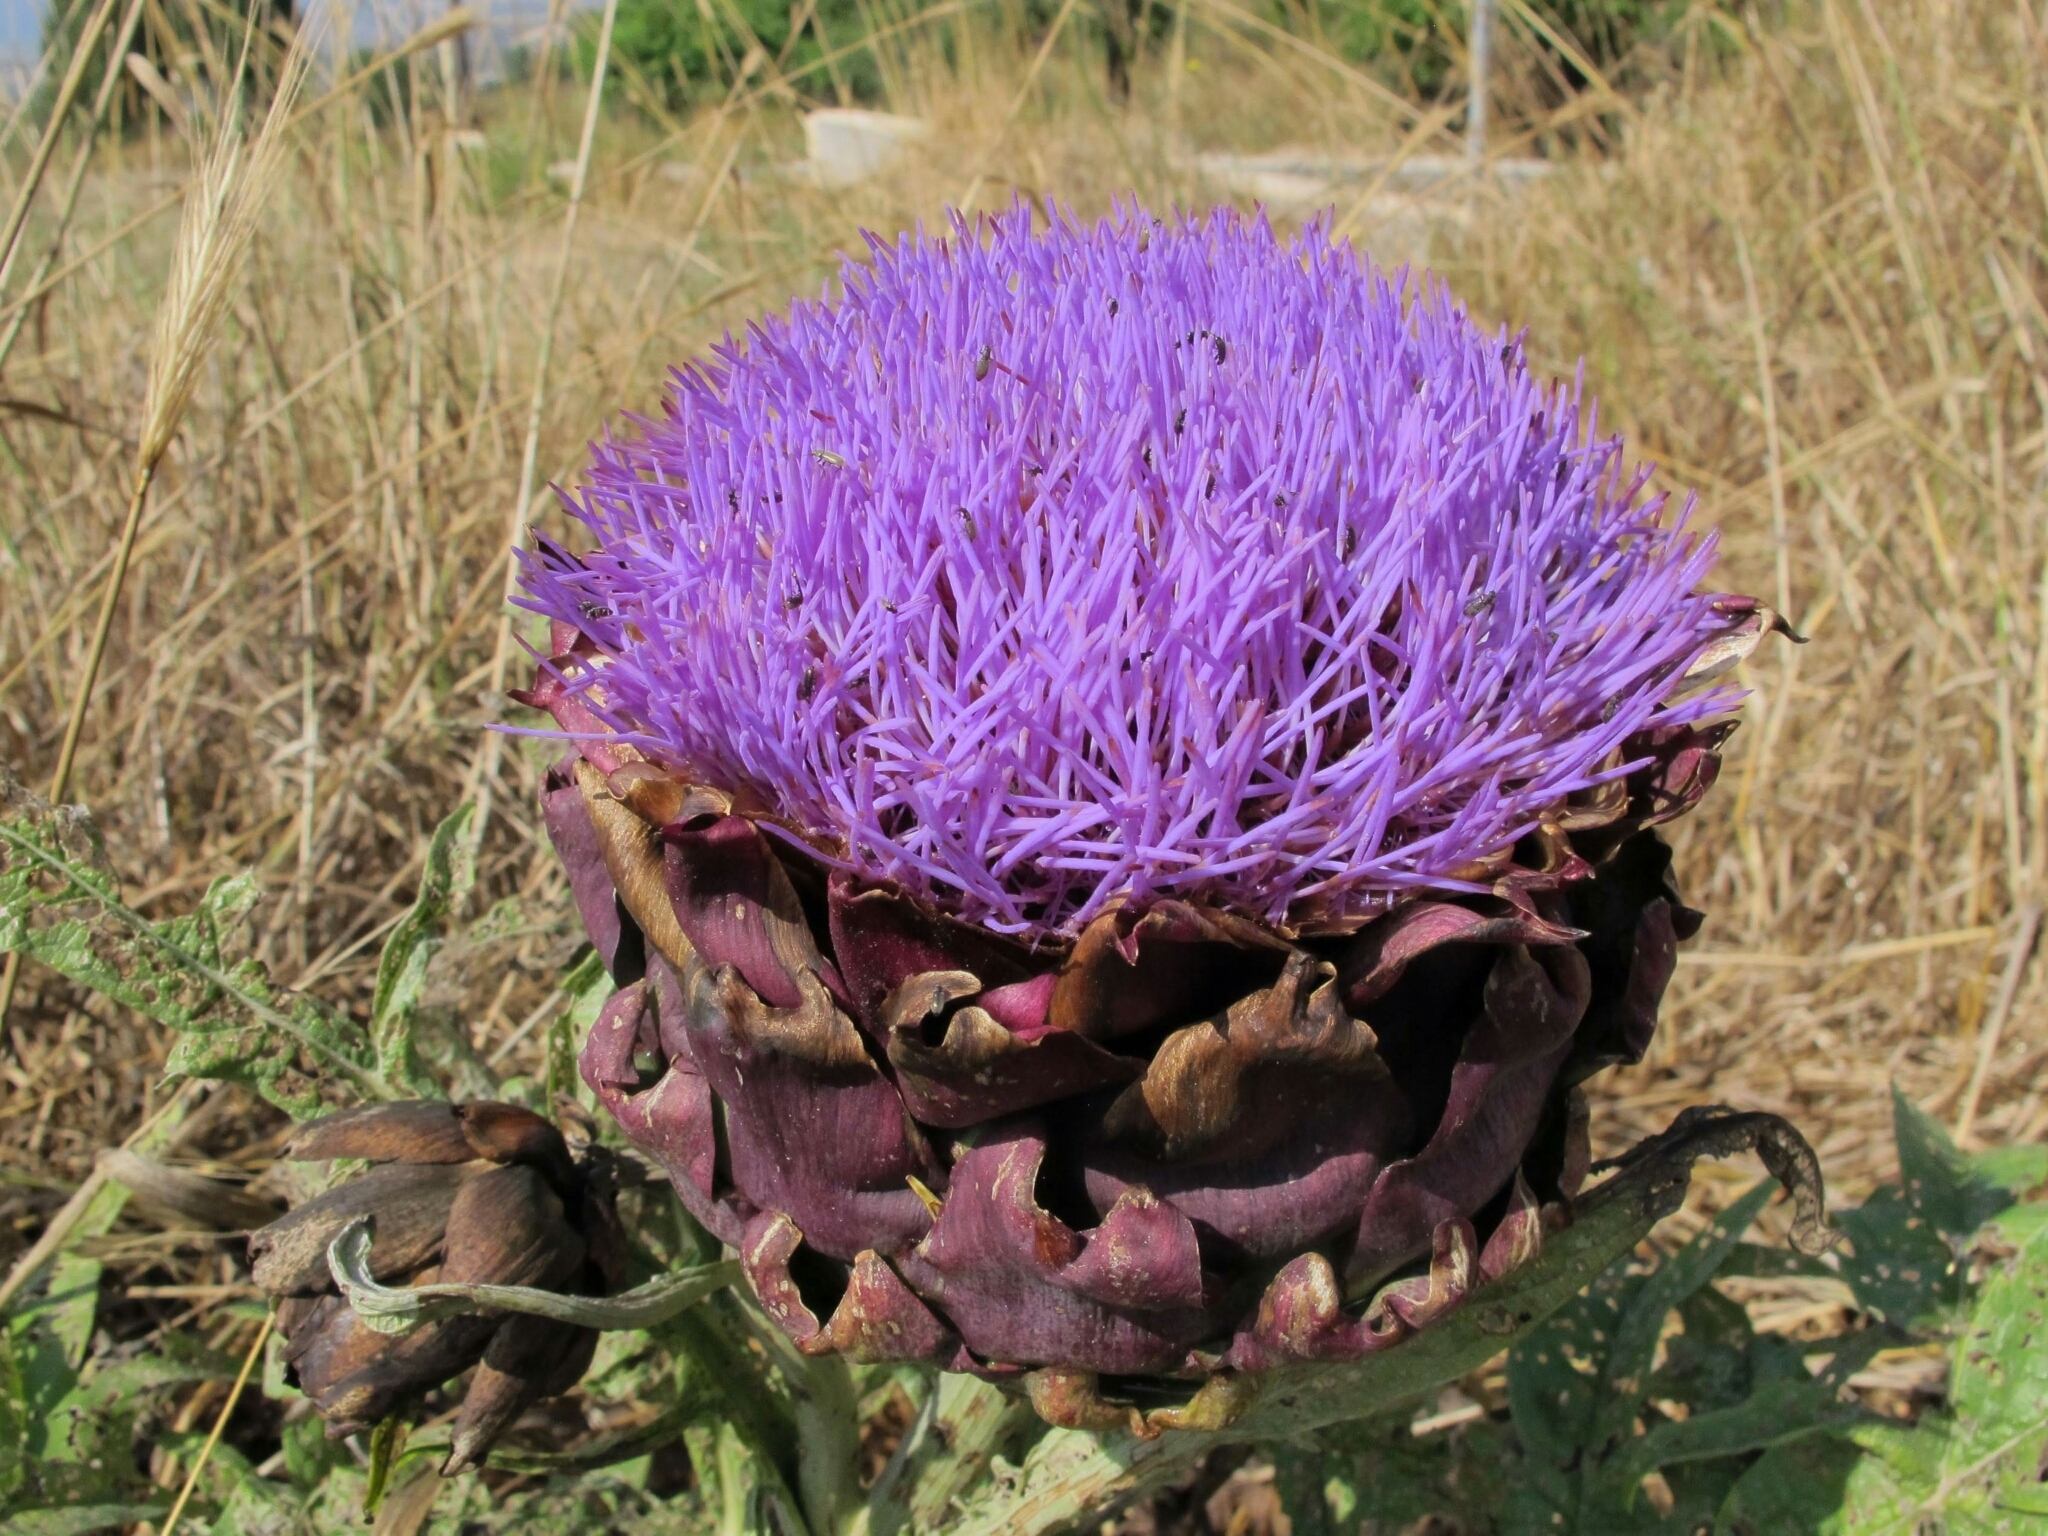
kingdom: Plantae
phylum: Tracheophyta
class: Magnoliopsida
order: Asterales
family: Asteraceae
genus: Cynara
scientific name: Cynara cardunculus
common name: Globe artichoke
